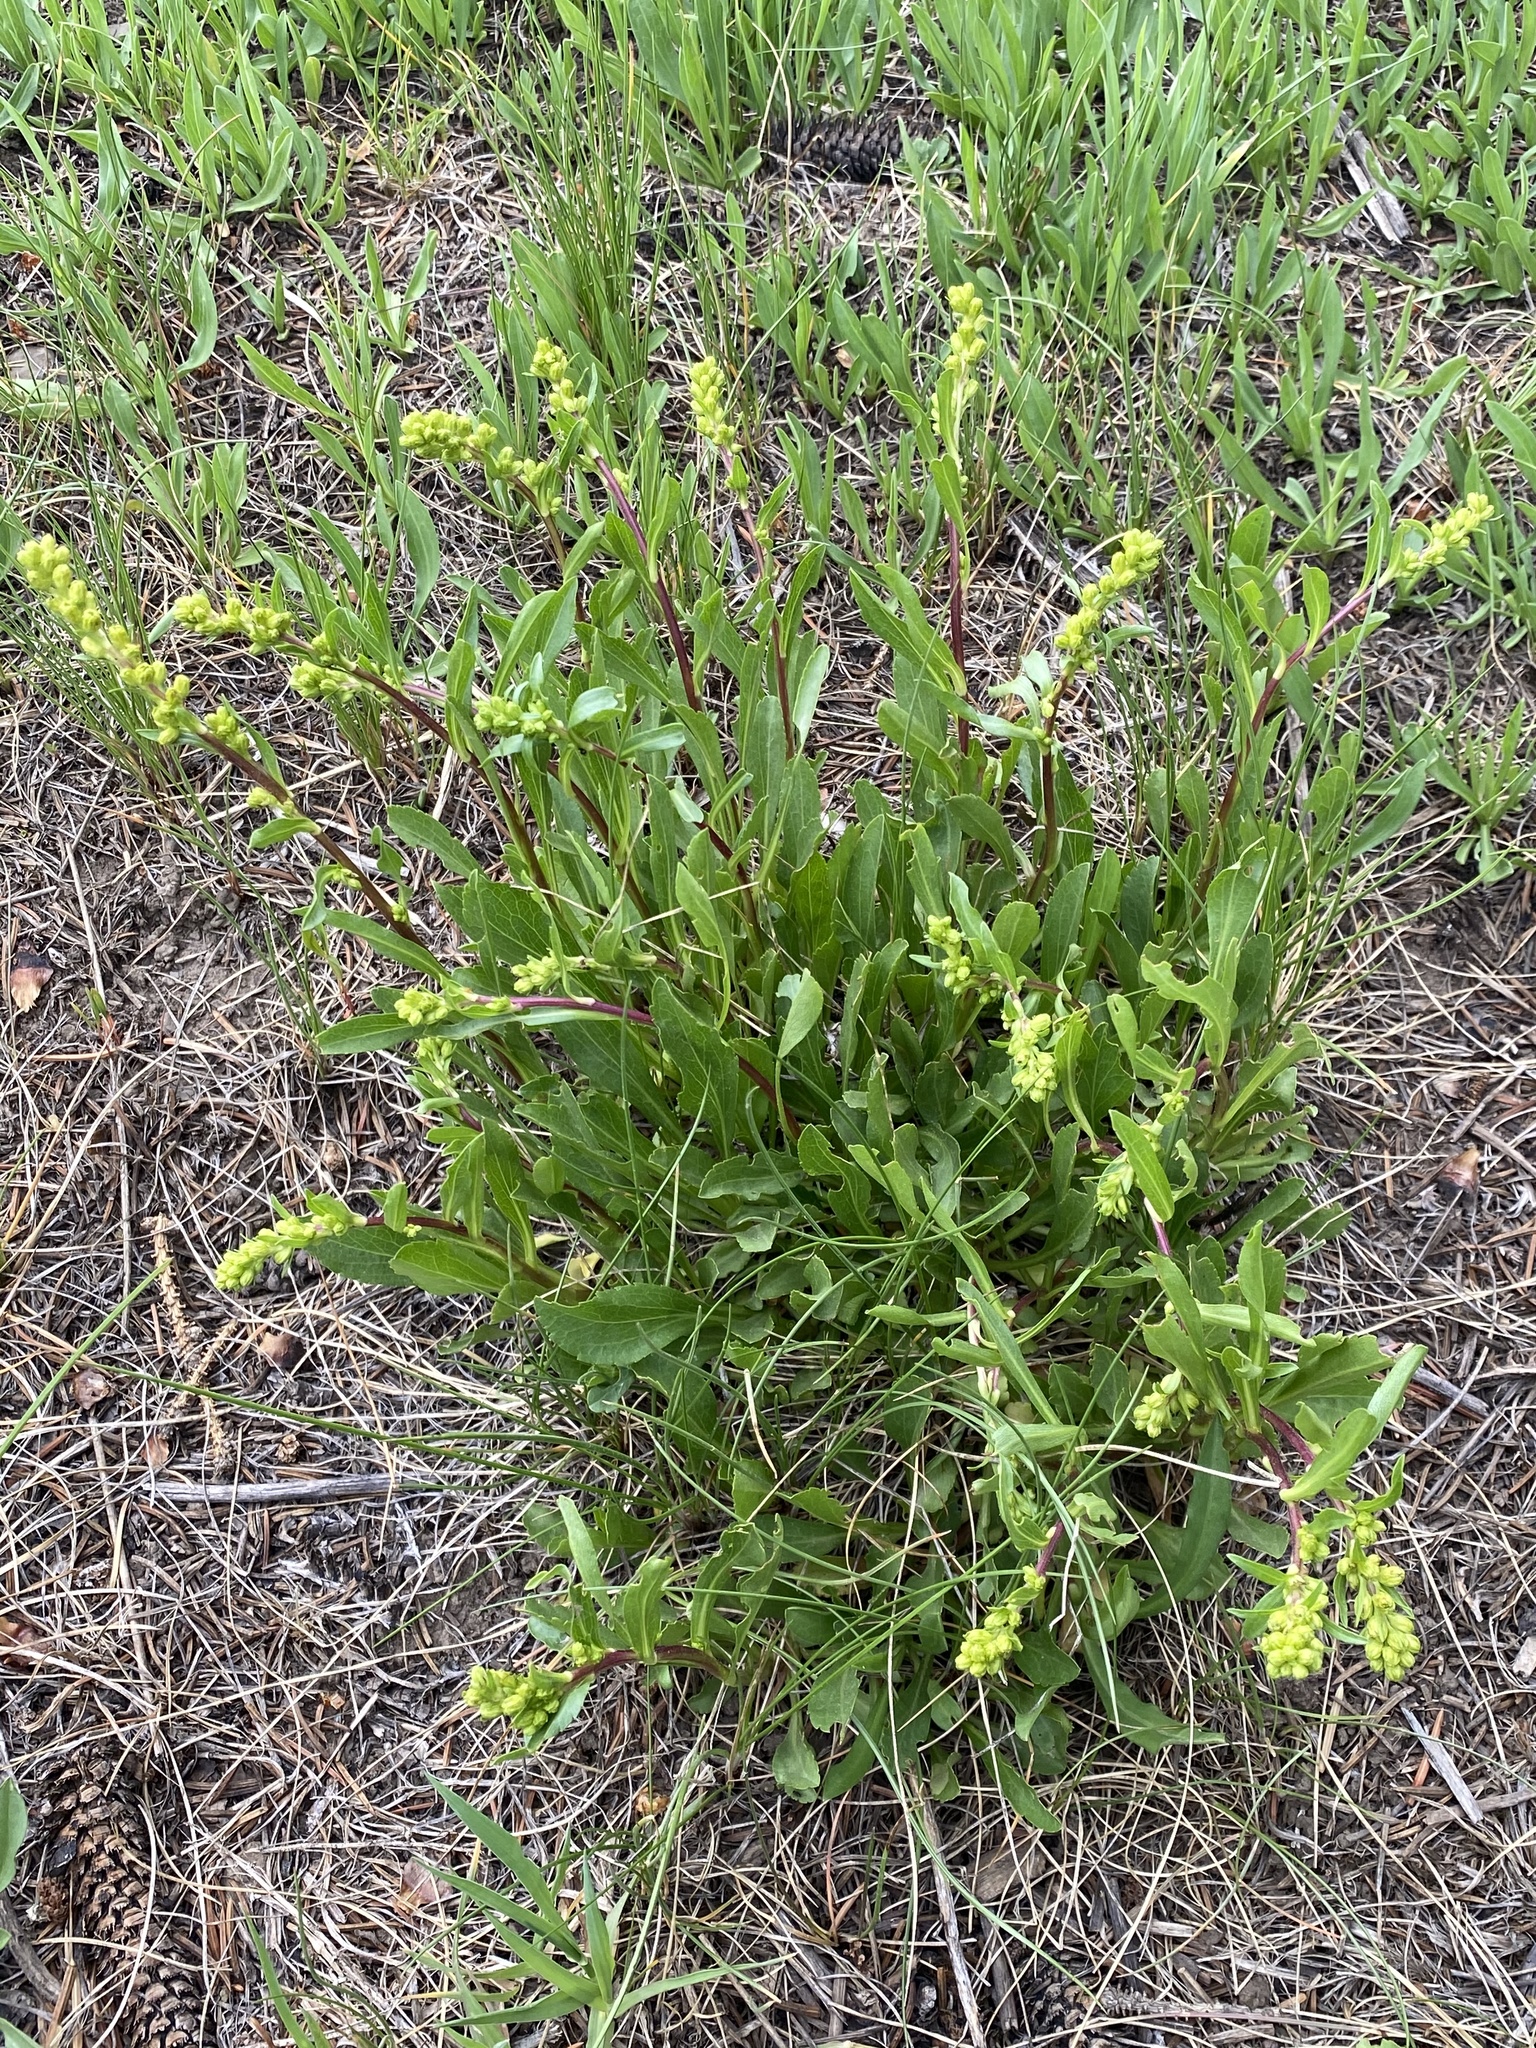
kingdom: Plantae
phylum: Tracheophyta
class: Magnoliopsida
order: Asterales
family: Asteraceae
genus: Solidago
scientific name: Solidago glutinosa
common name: Decumbent goldenrod
